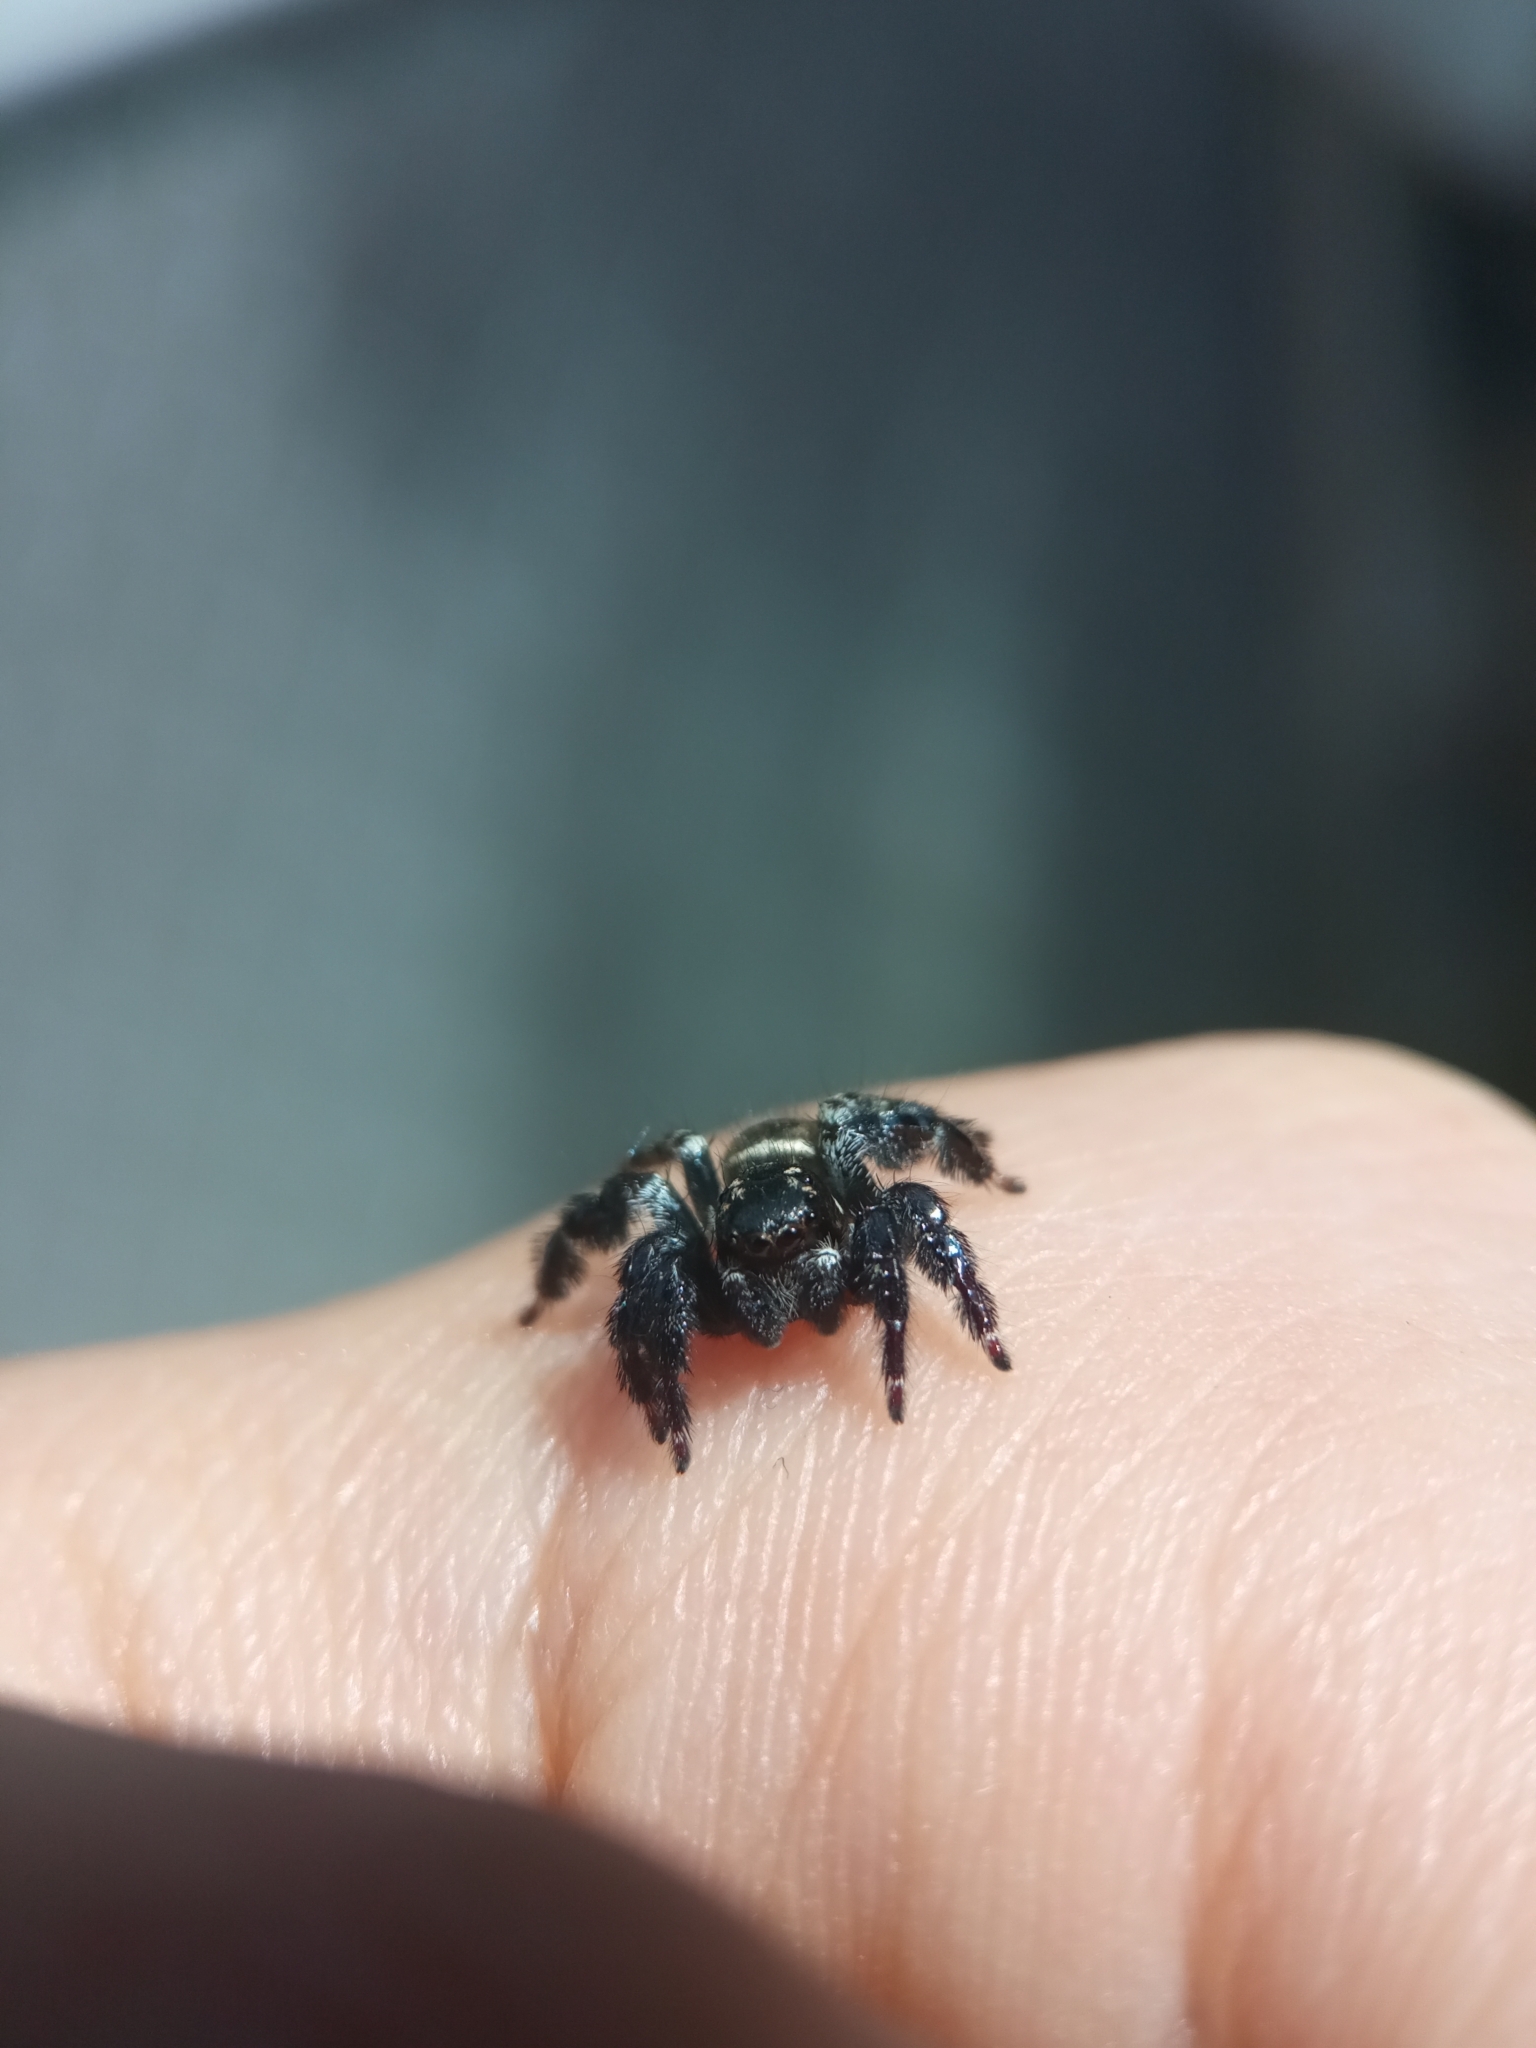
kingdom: Animalia
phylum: Arthropoda
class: Arachnida
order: Araneae
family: Salticidae
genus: Corythalia
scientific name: Corythalia spiralis
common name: Jumping spiders
